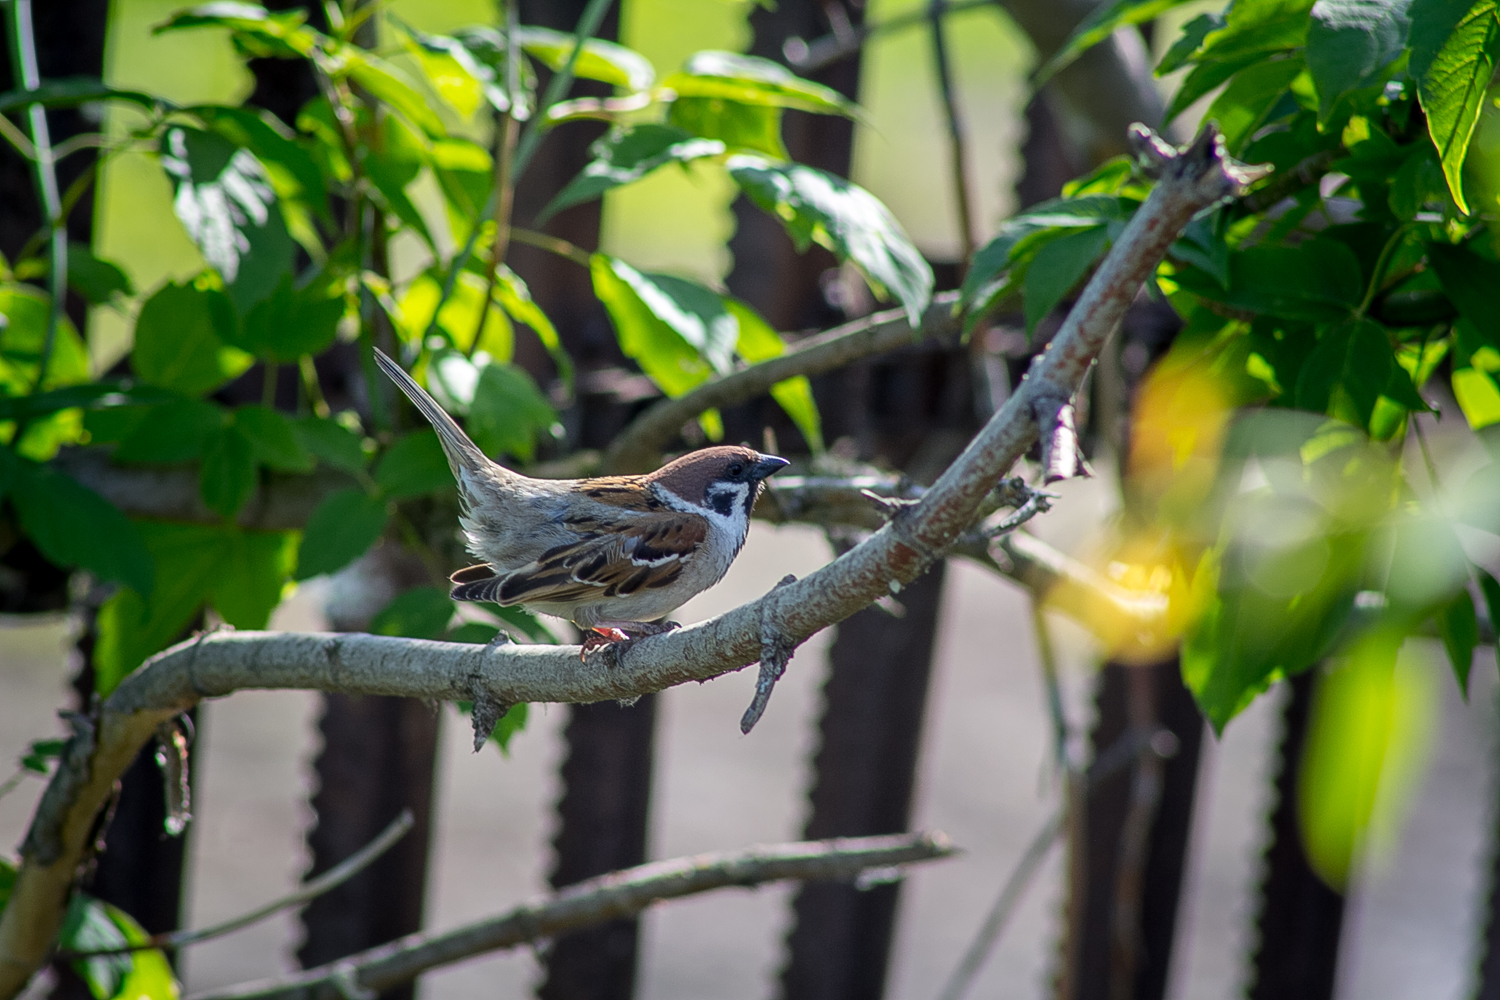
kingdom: Animalia
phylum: Chordata
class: Aves
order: Passeriformes
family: Passeridae
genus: Passer
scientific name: Passer montanus
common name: Eurasian tree sparrow
